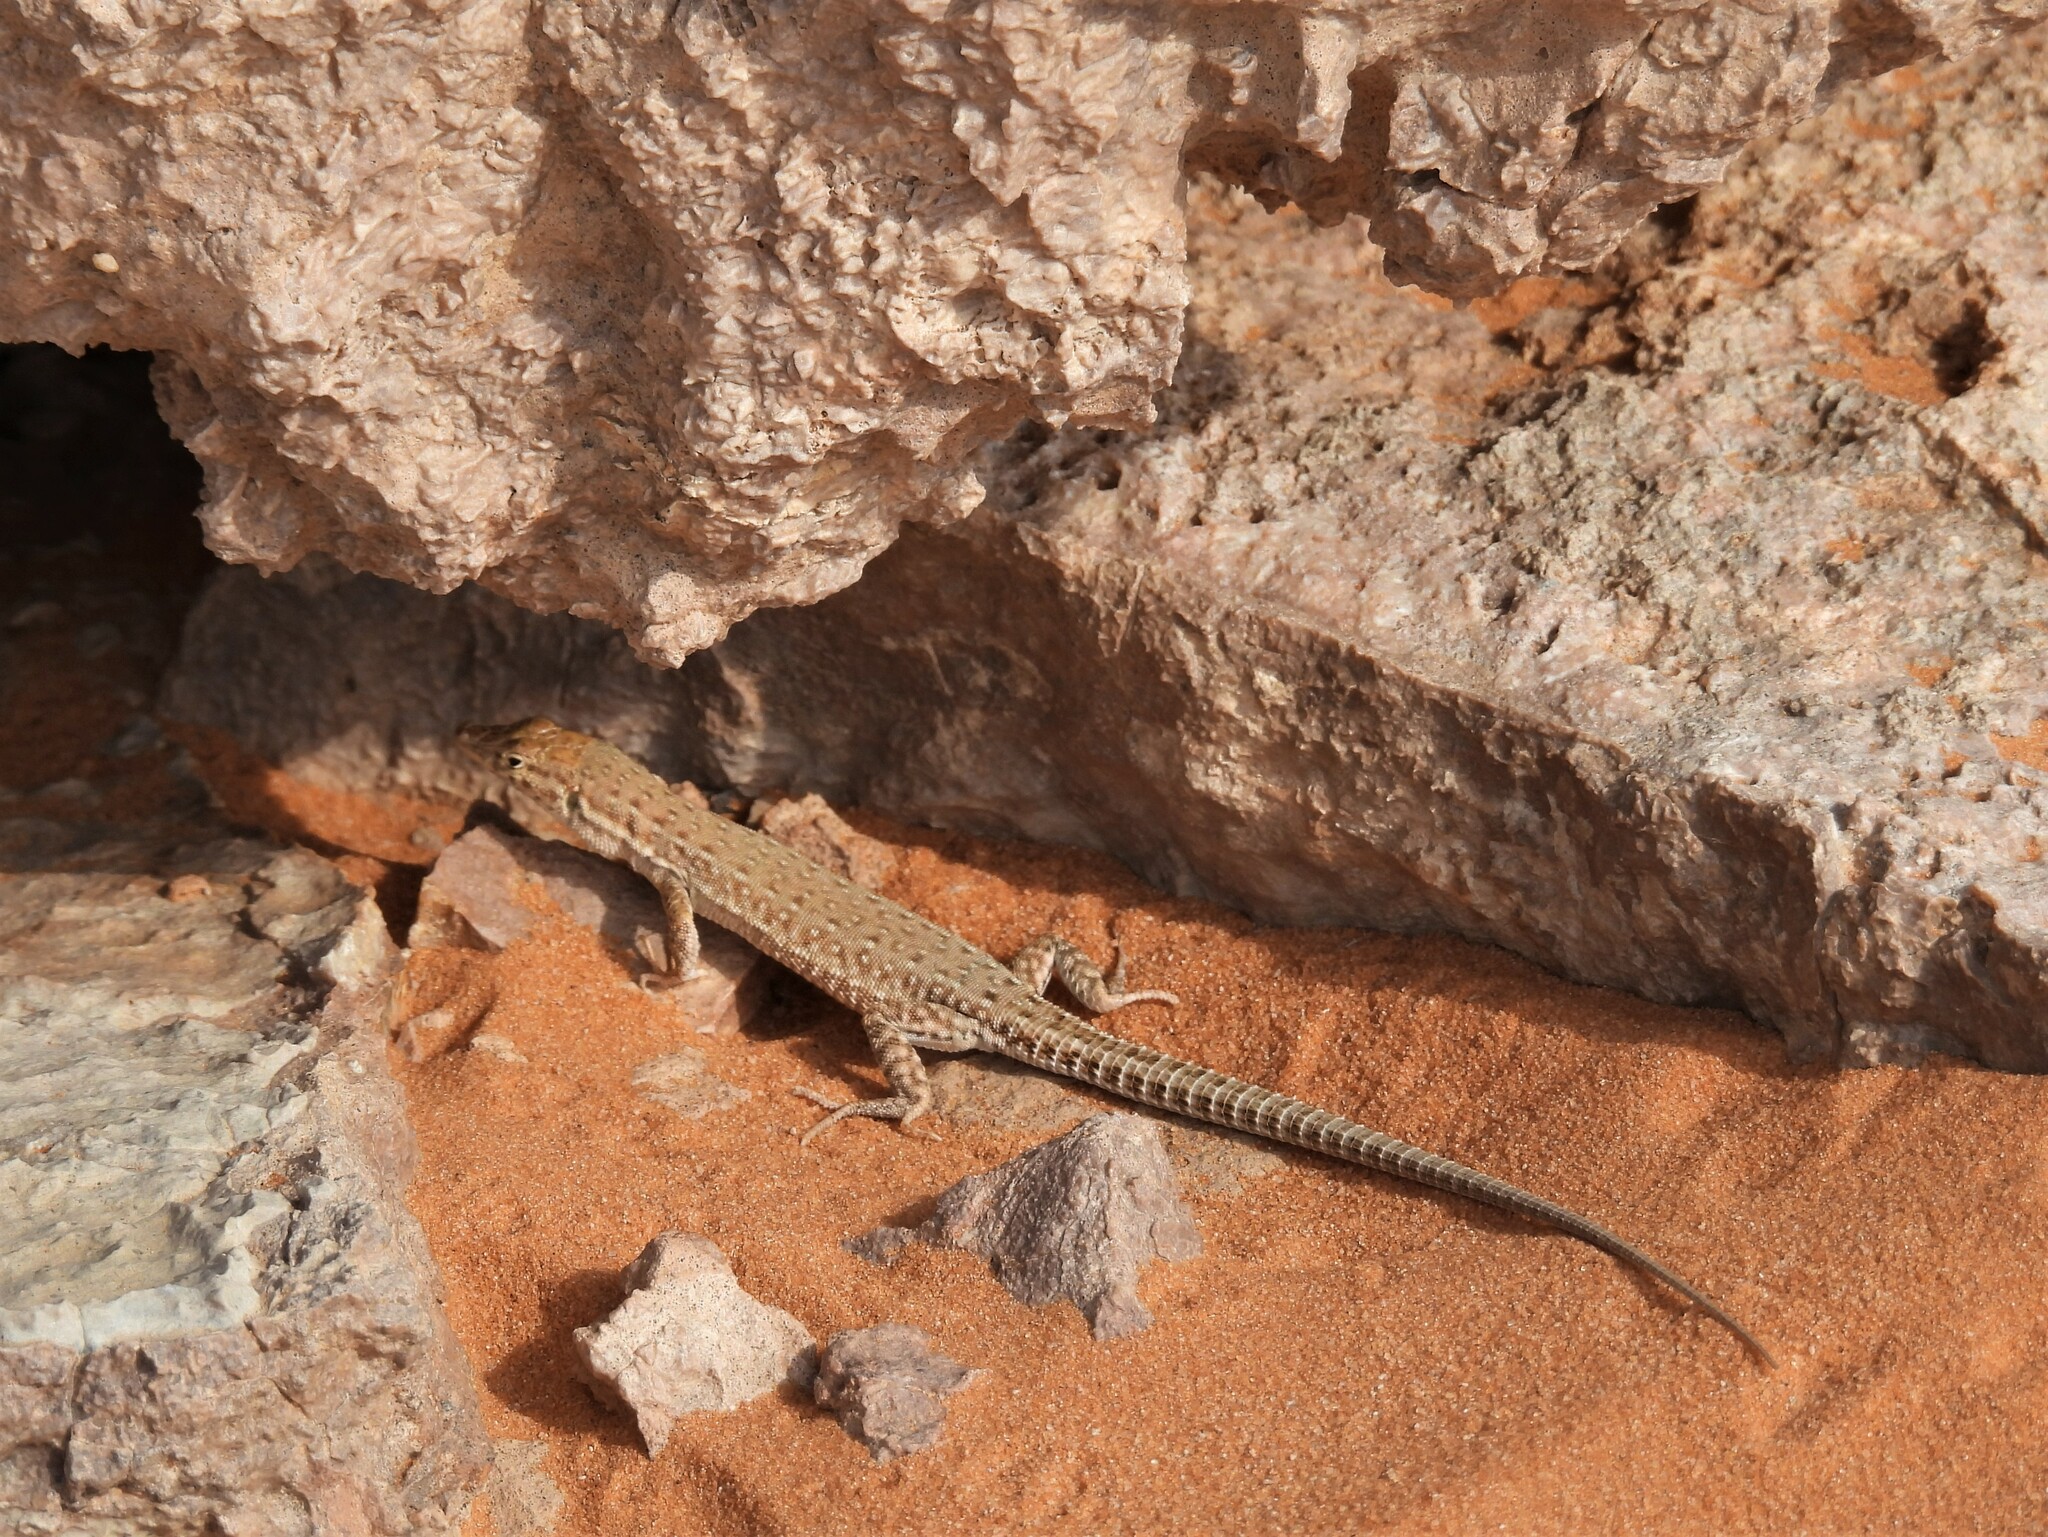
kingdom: Animalia
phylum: Chordata
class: Squamata
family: Lacertidae
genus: Mesalina
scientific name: Mesalina guttulata
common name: Desert lacerta
